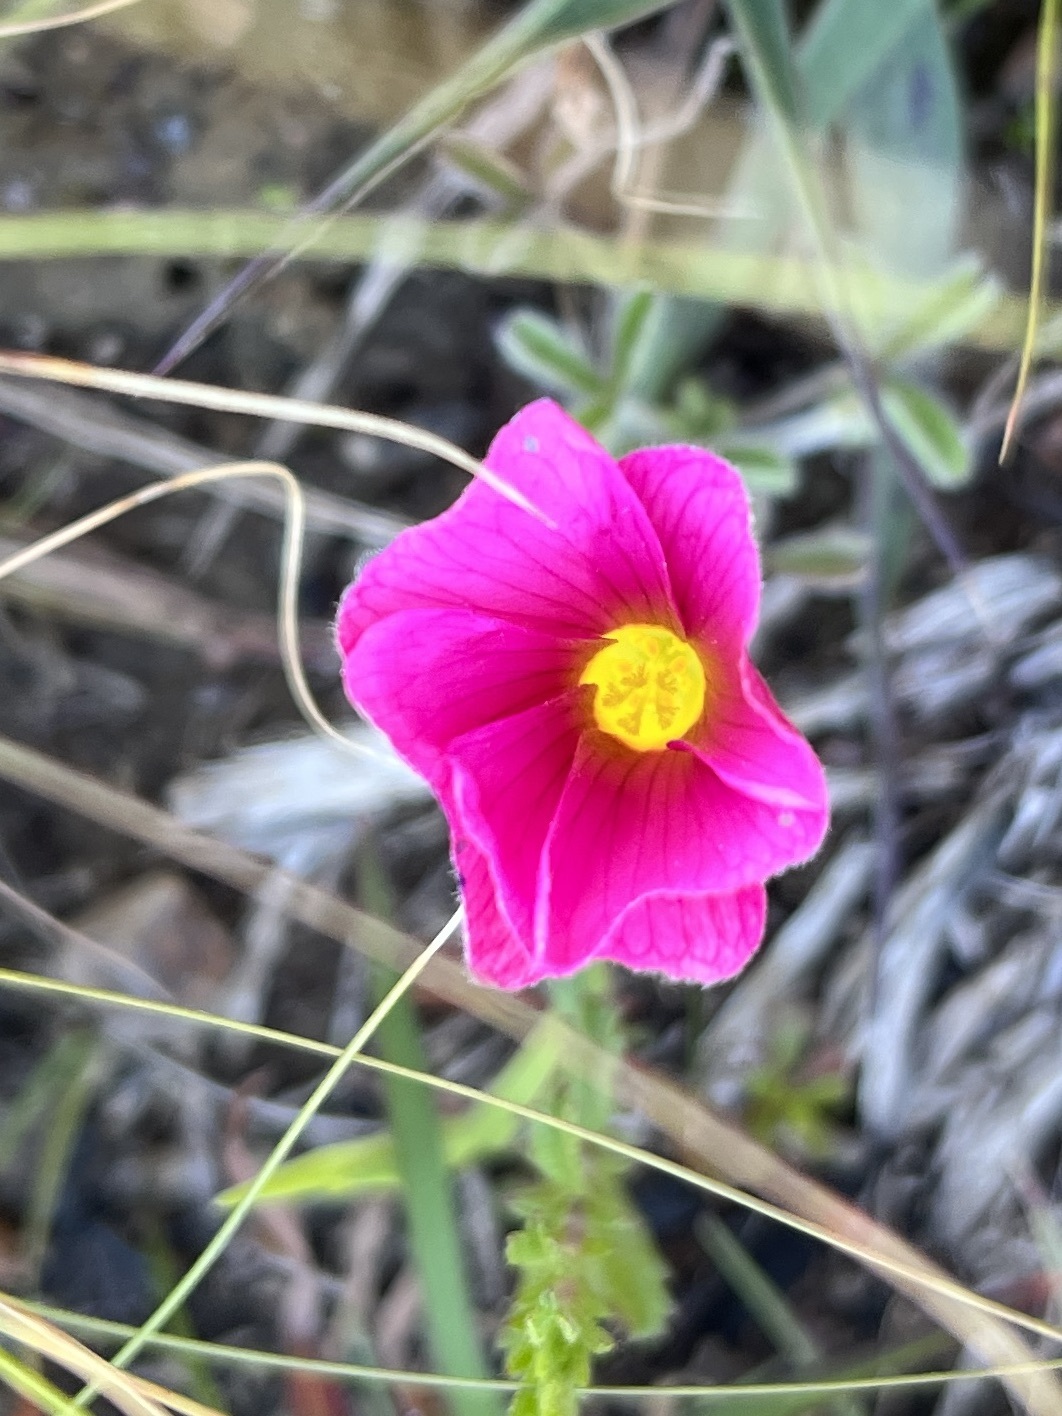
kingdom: Plantae
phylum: Tracheophyta
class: Magnoliopsida
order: Oxalidales
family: Oxalidaceae
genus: Oxalis
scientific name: Oxalis obtusa
